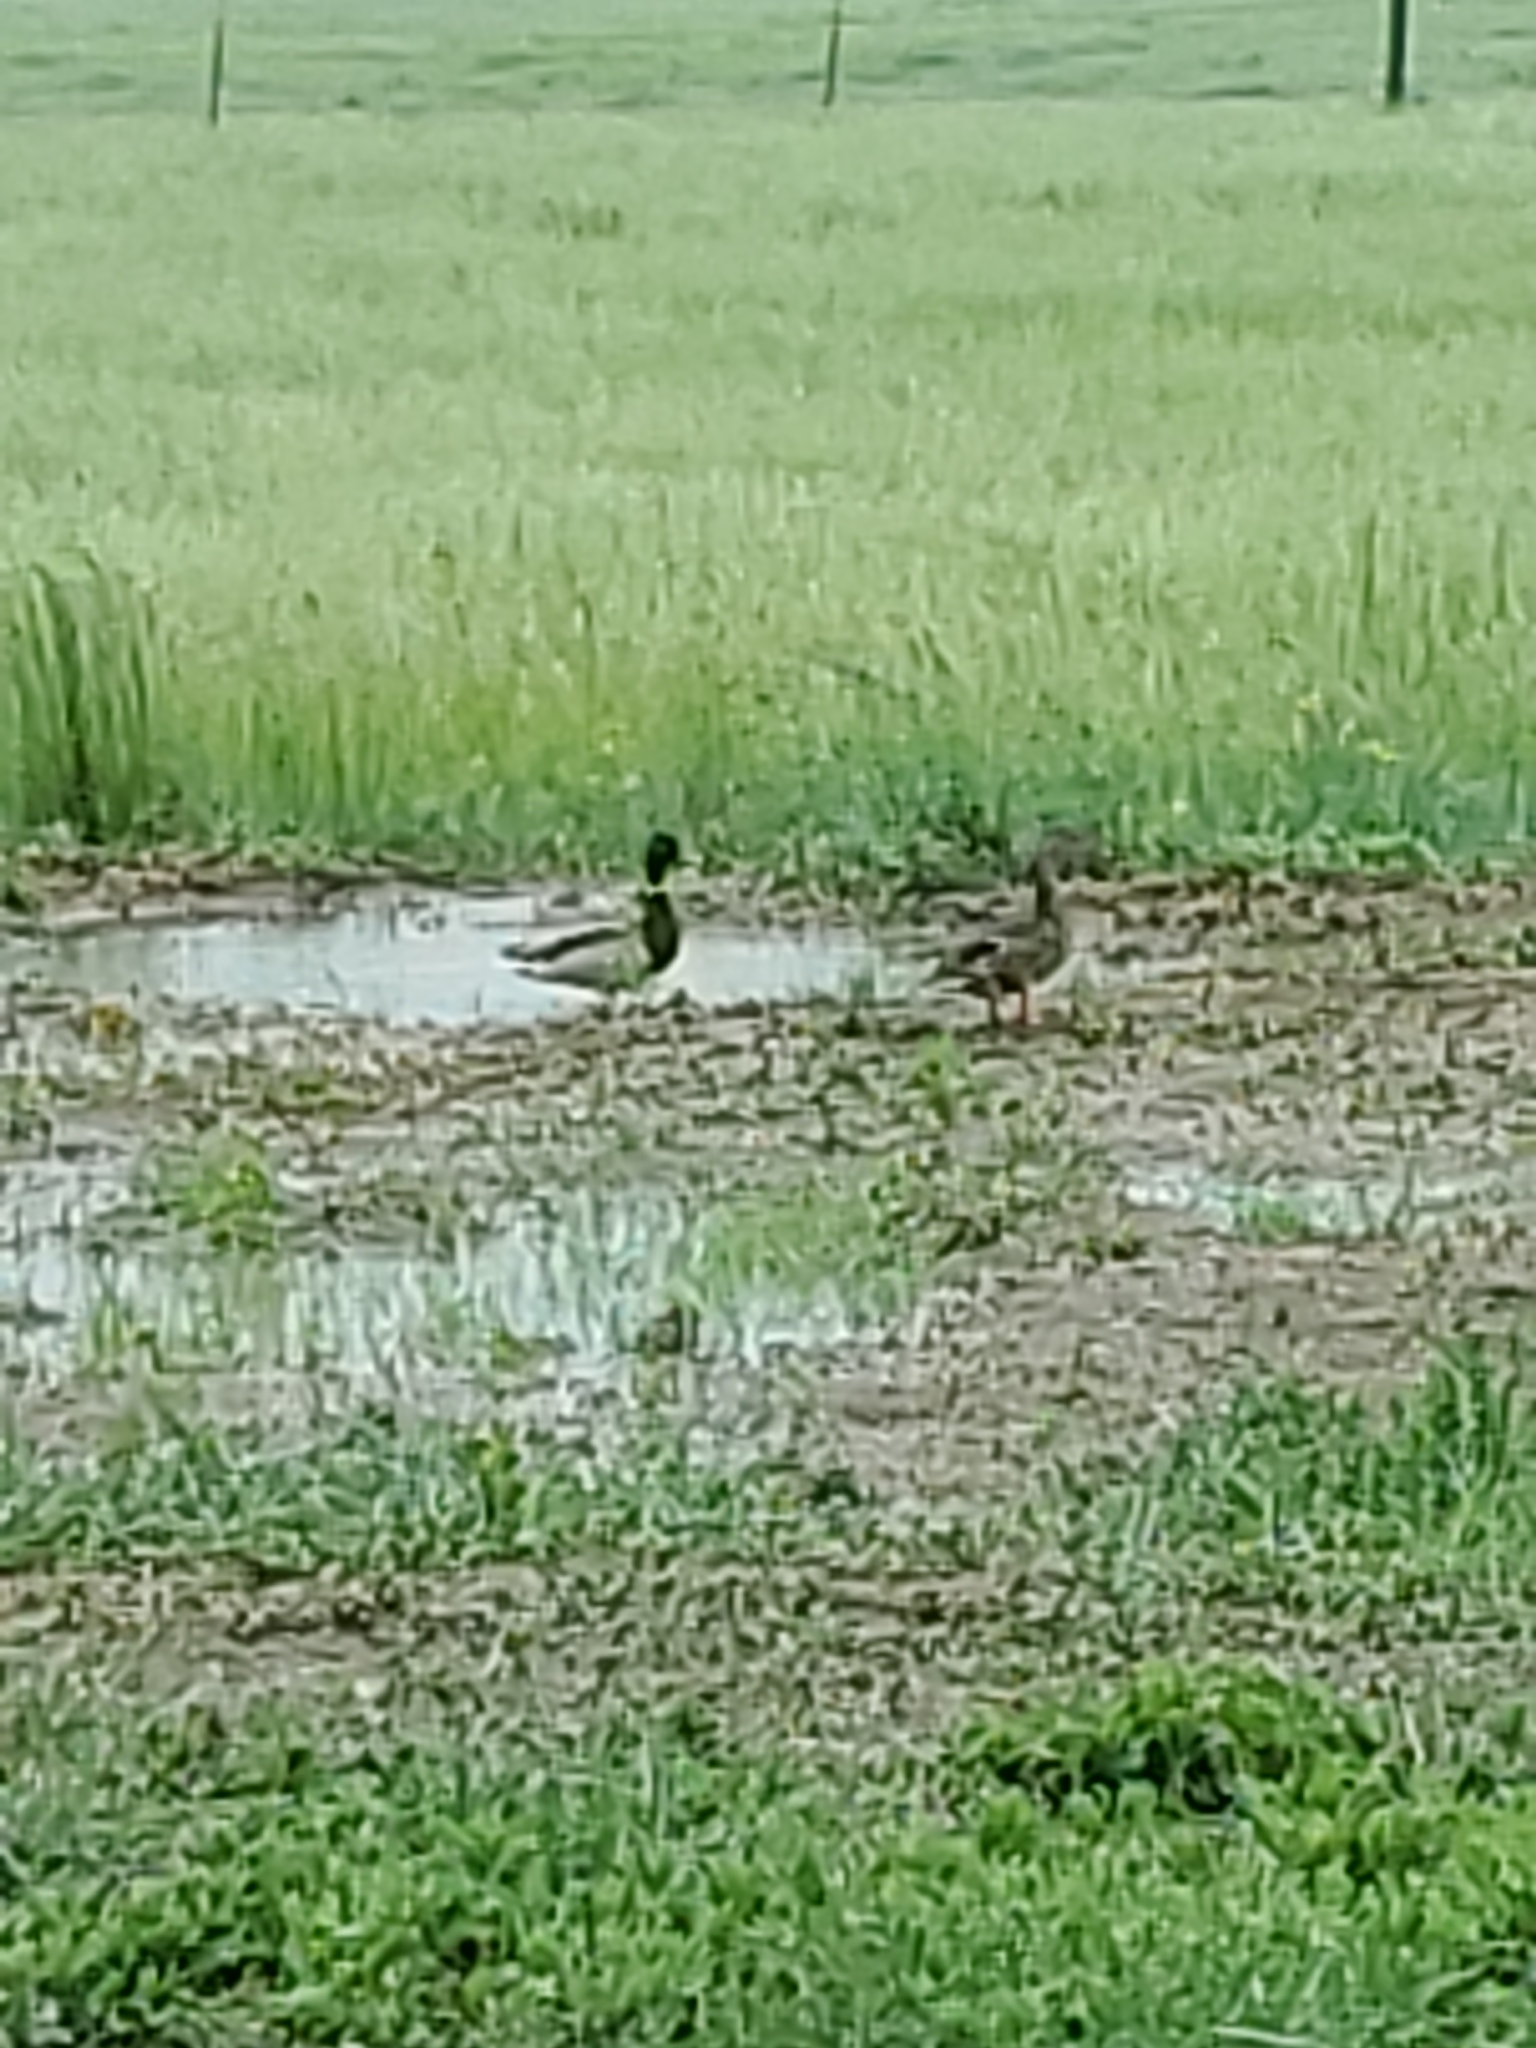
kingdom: Animalia
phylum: Chordata
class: Aves
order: Anseriformes
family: Anatidae
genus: Anas
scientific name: Anas platyrhynchos
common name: Mallard
